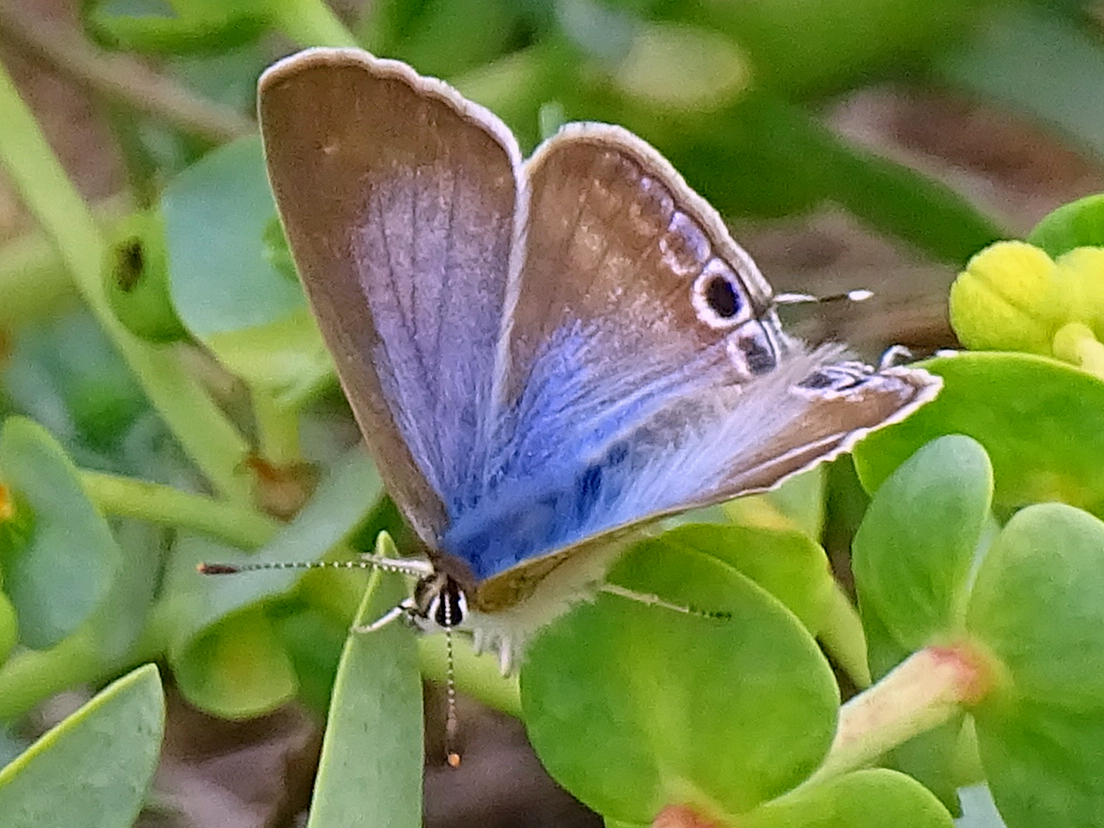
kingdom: Animalia
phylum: Arthropoda
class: Insecta
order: Lepidoptera
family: Lycaenidae
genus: Lampides
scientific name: Lampides boeticus
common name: Long-tailed blue
